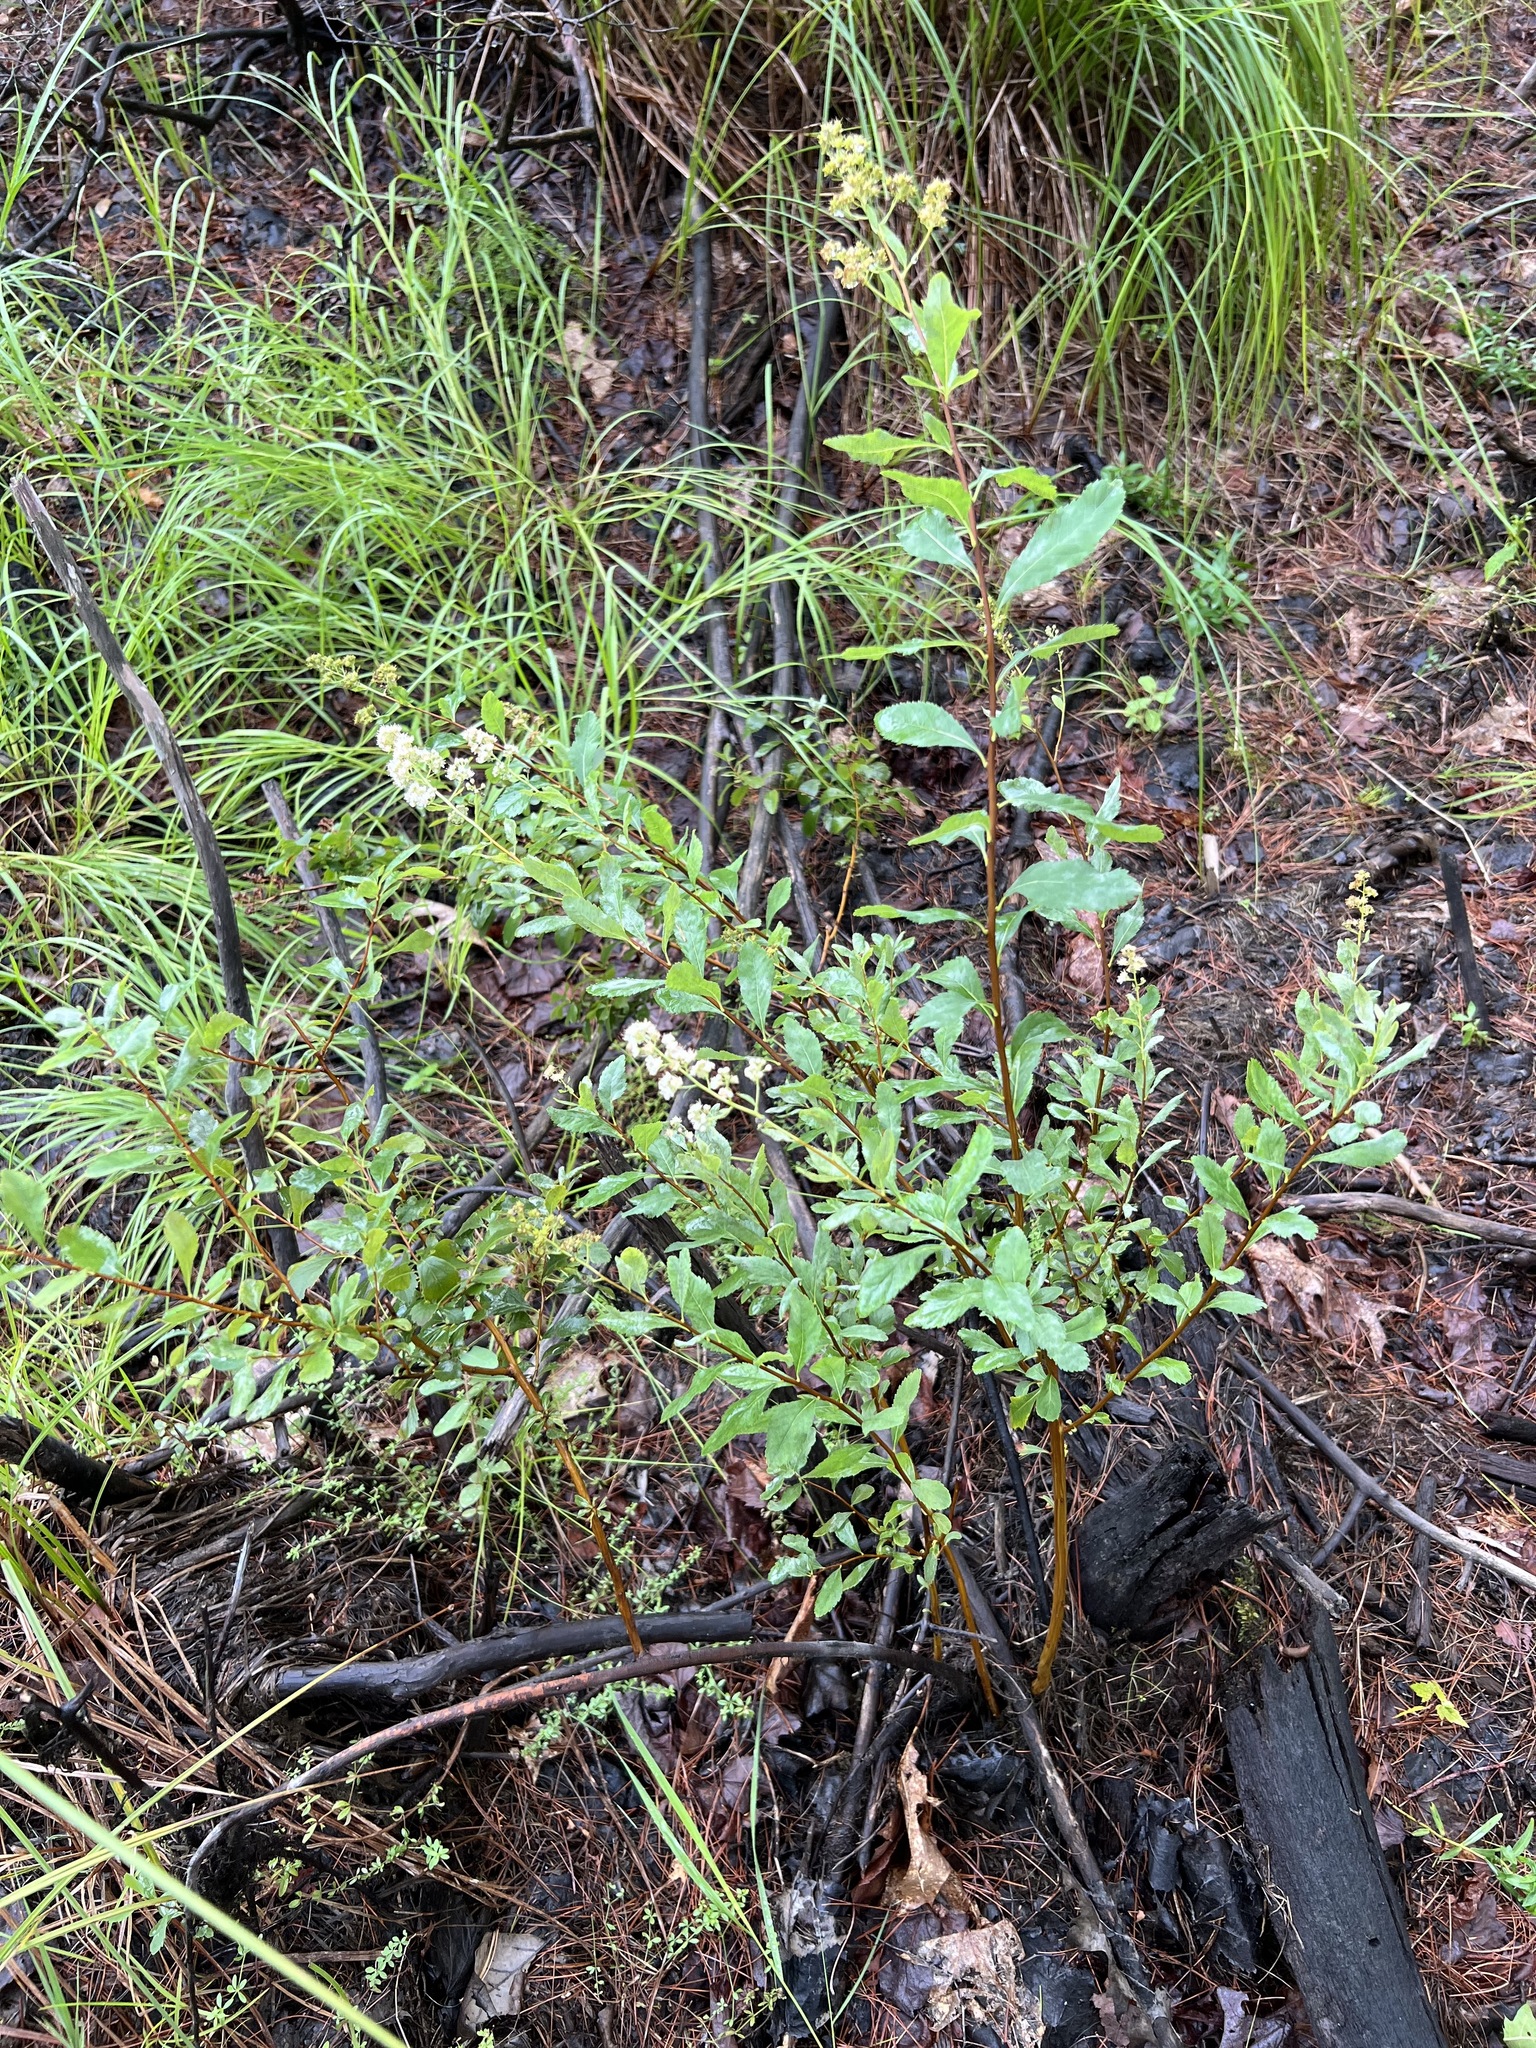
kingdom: Plantae
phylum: Tracheophyta
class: Magnoliopsida
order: Rosales
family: Rosaceae
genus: Spiraea
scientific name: Spiraea alba
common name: Pale bridewort
